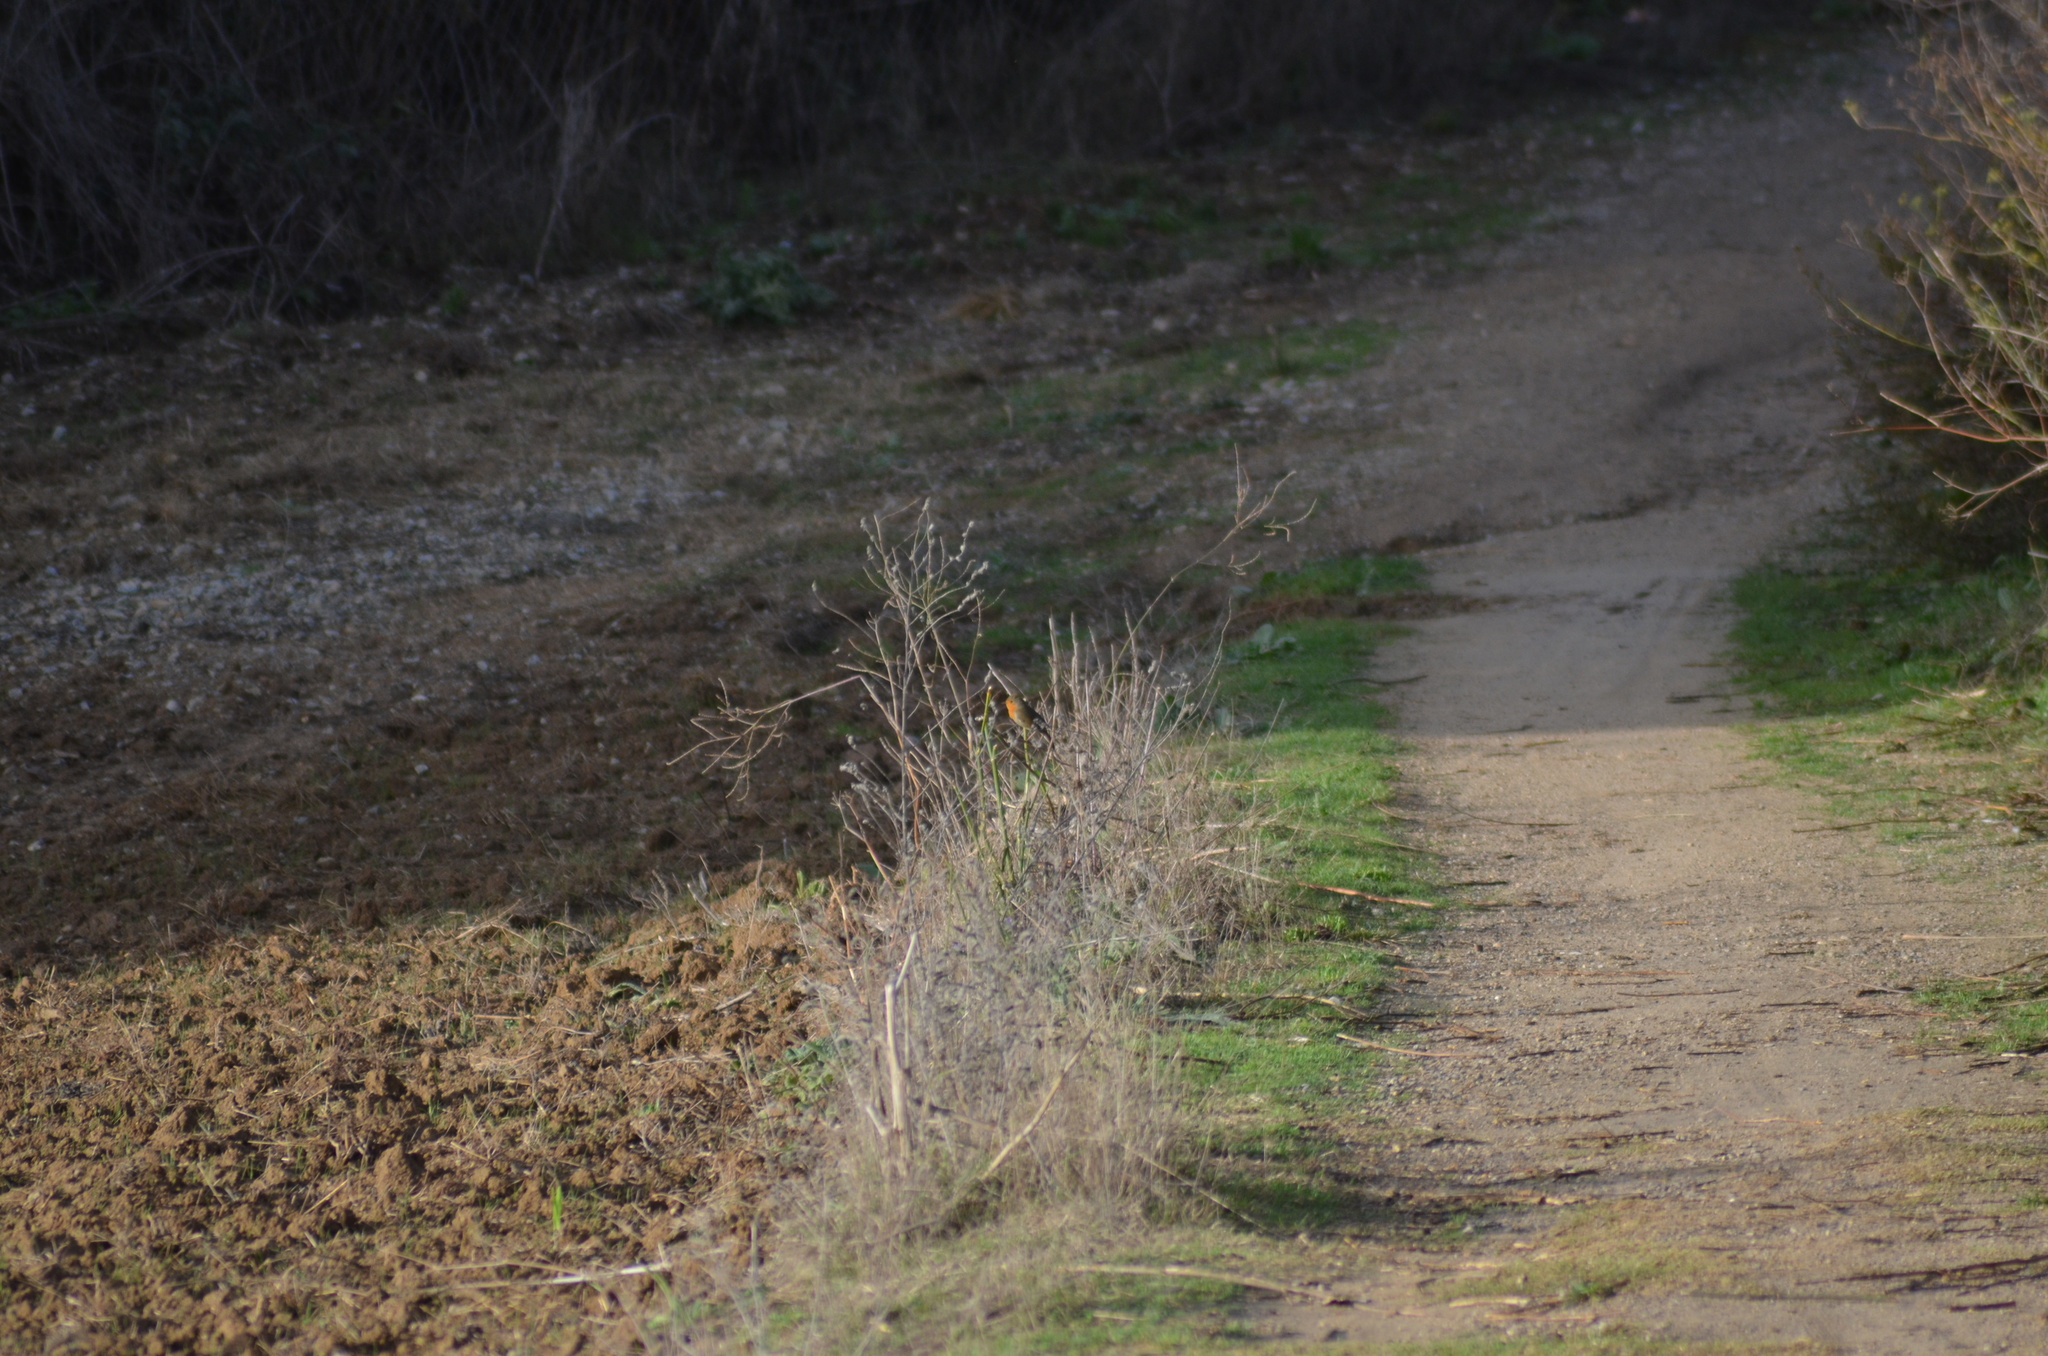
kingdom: Animalia
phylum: Chordata
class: Aves
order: Passeriformes
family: Muscicapidae
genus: Erithacus
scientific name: Erithacus rubecula
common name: European robin
